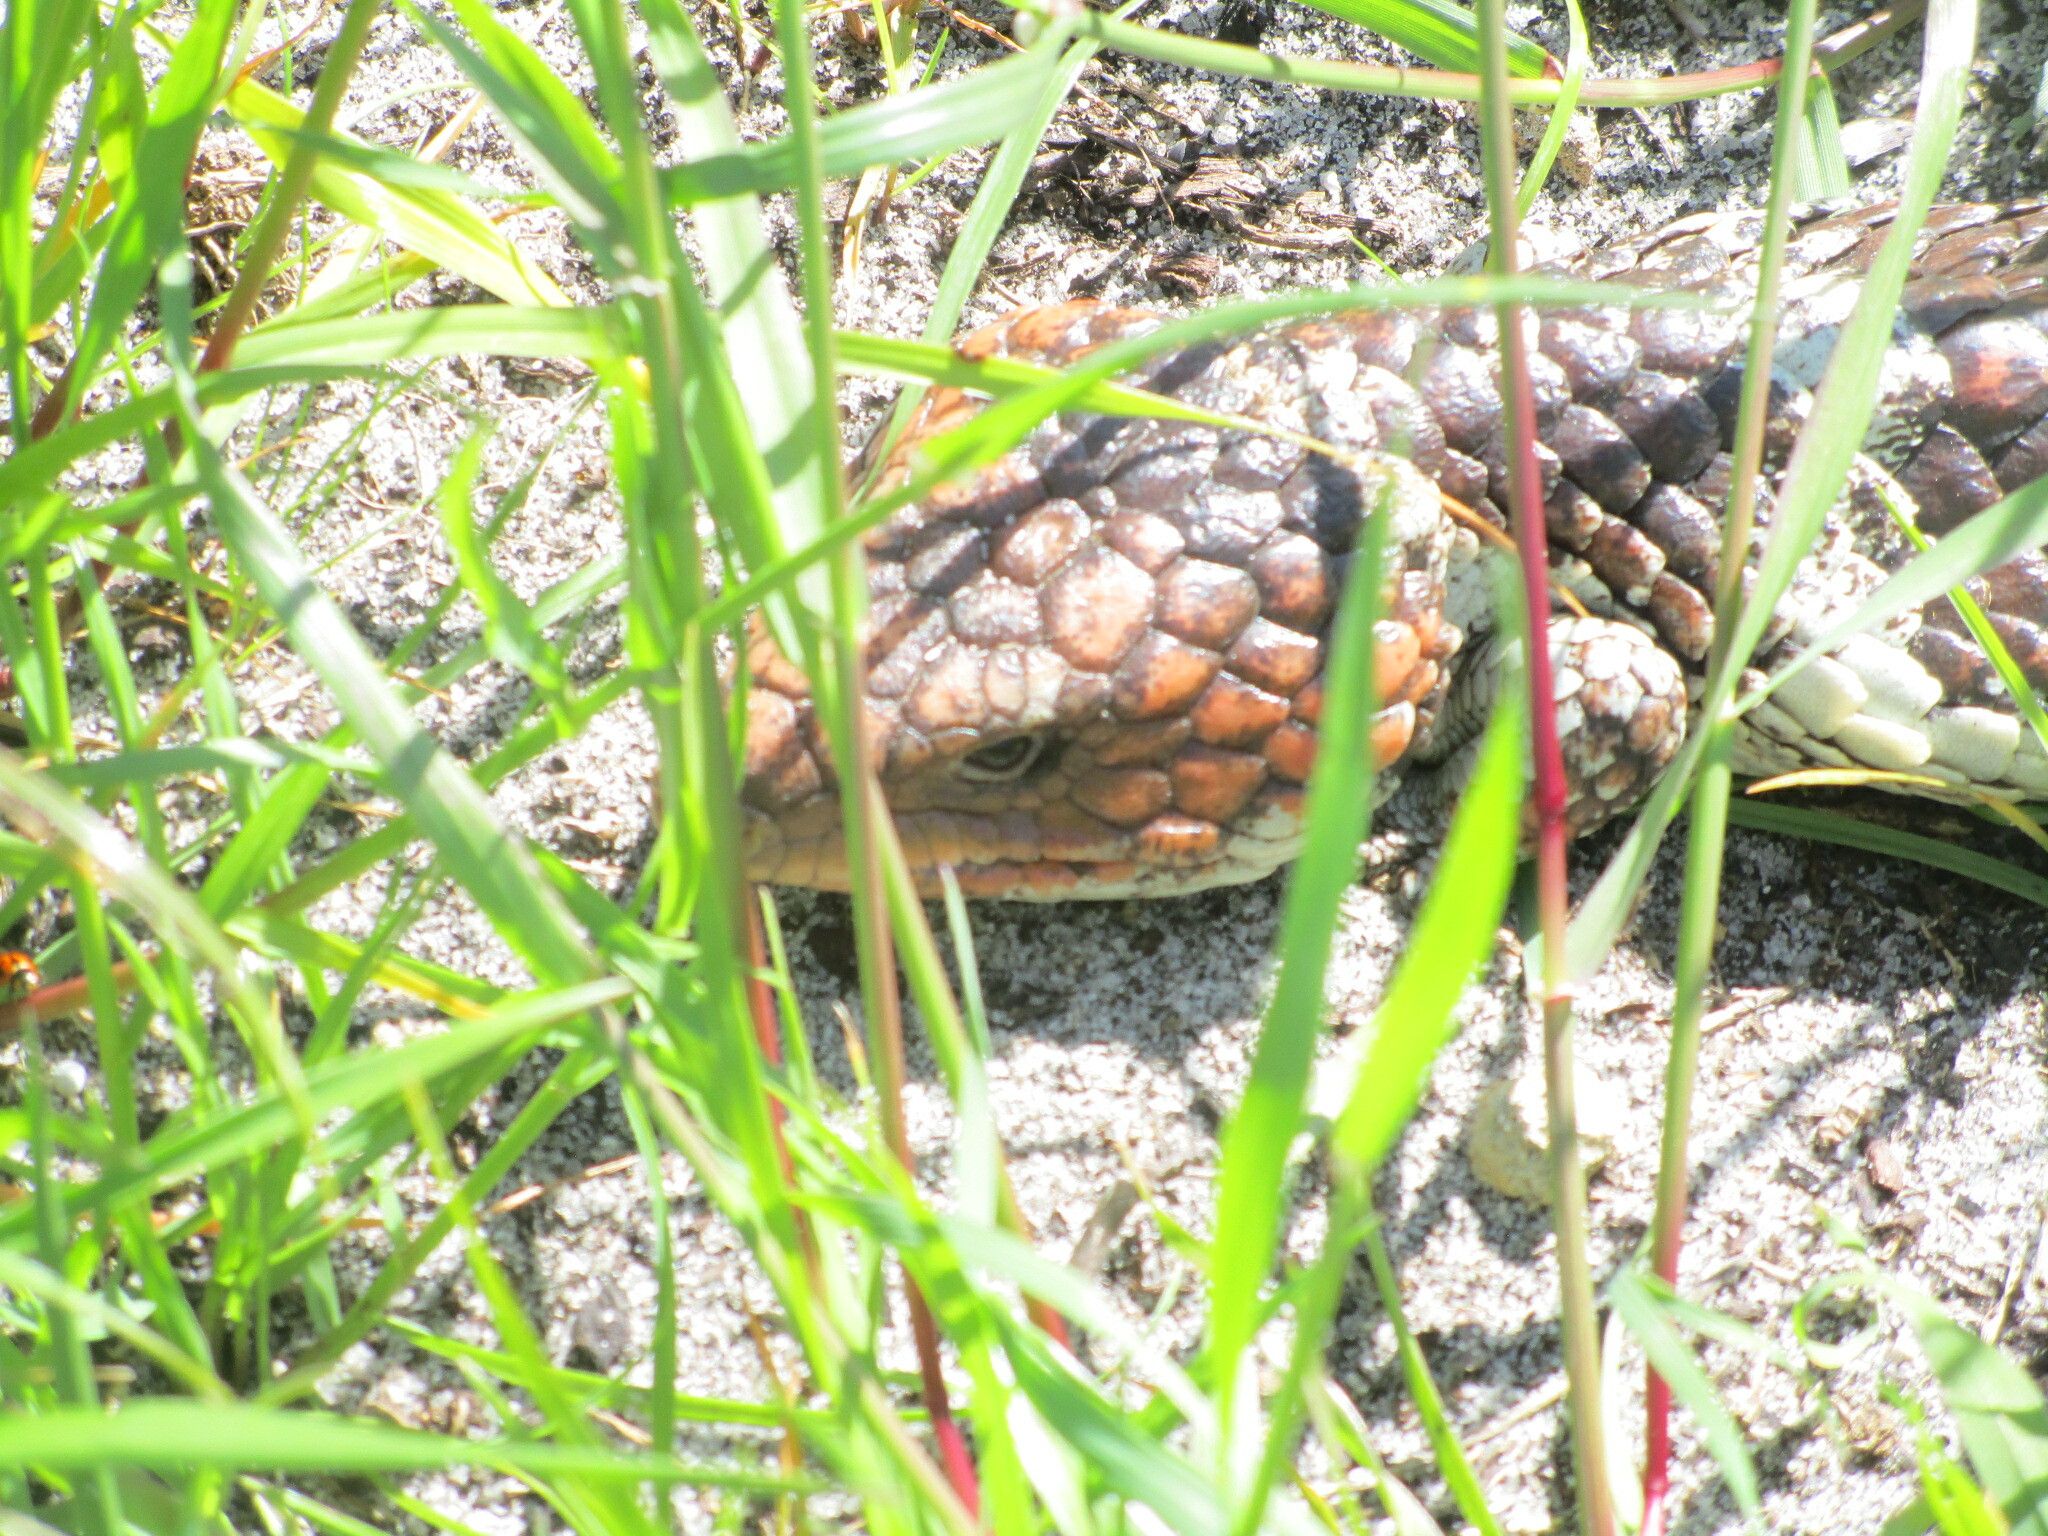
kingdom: Animalia
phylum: Chordata
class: Squamata
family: Scincidae
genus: Tiliqua
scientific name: Tiliqua rugosa
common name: Pinecone lizard
